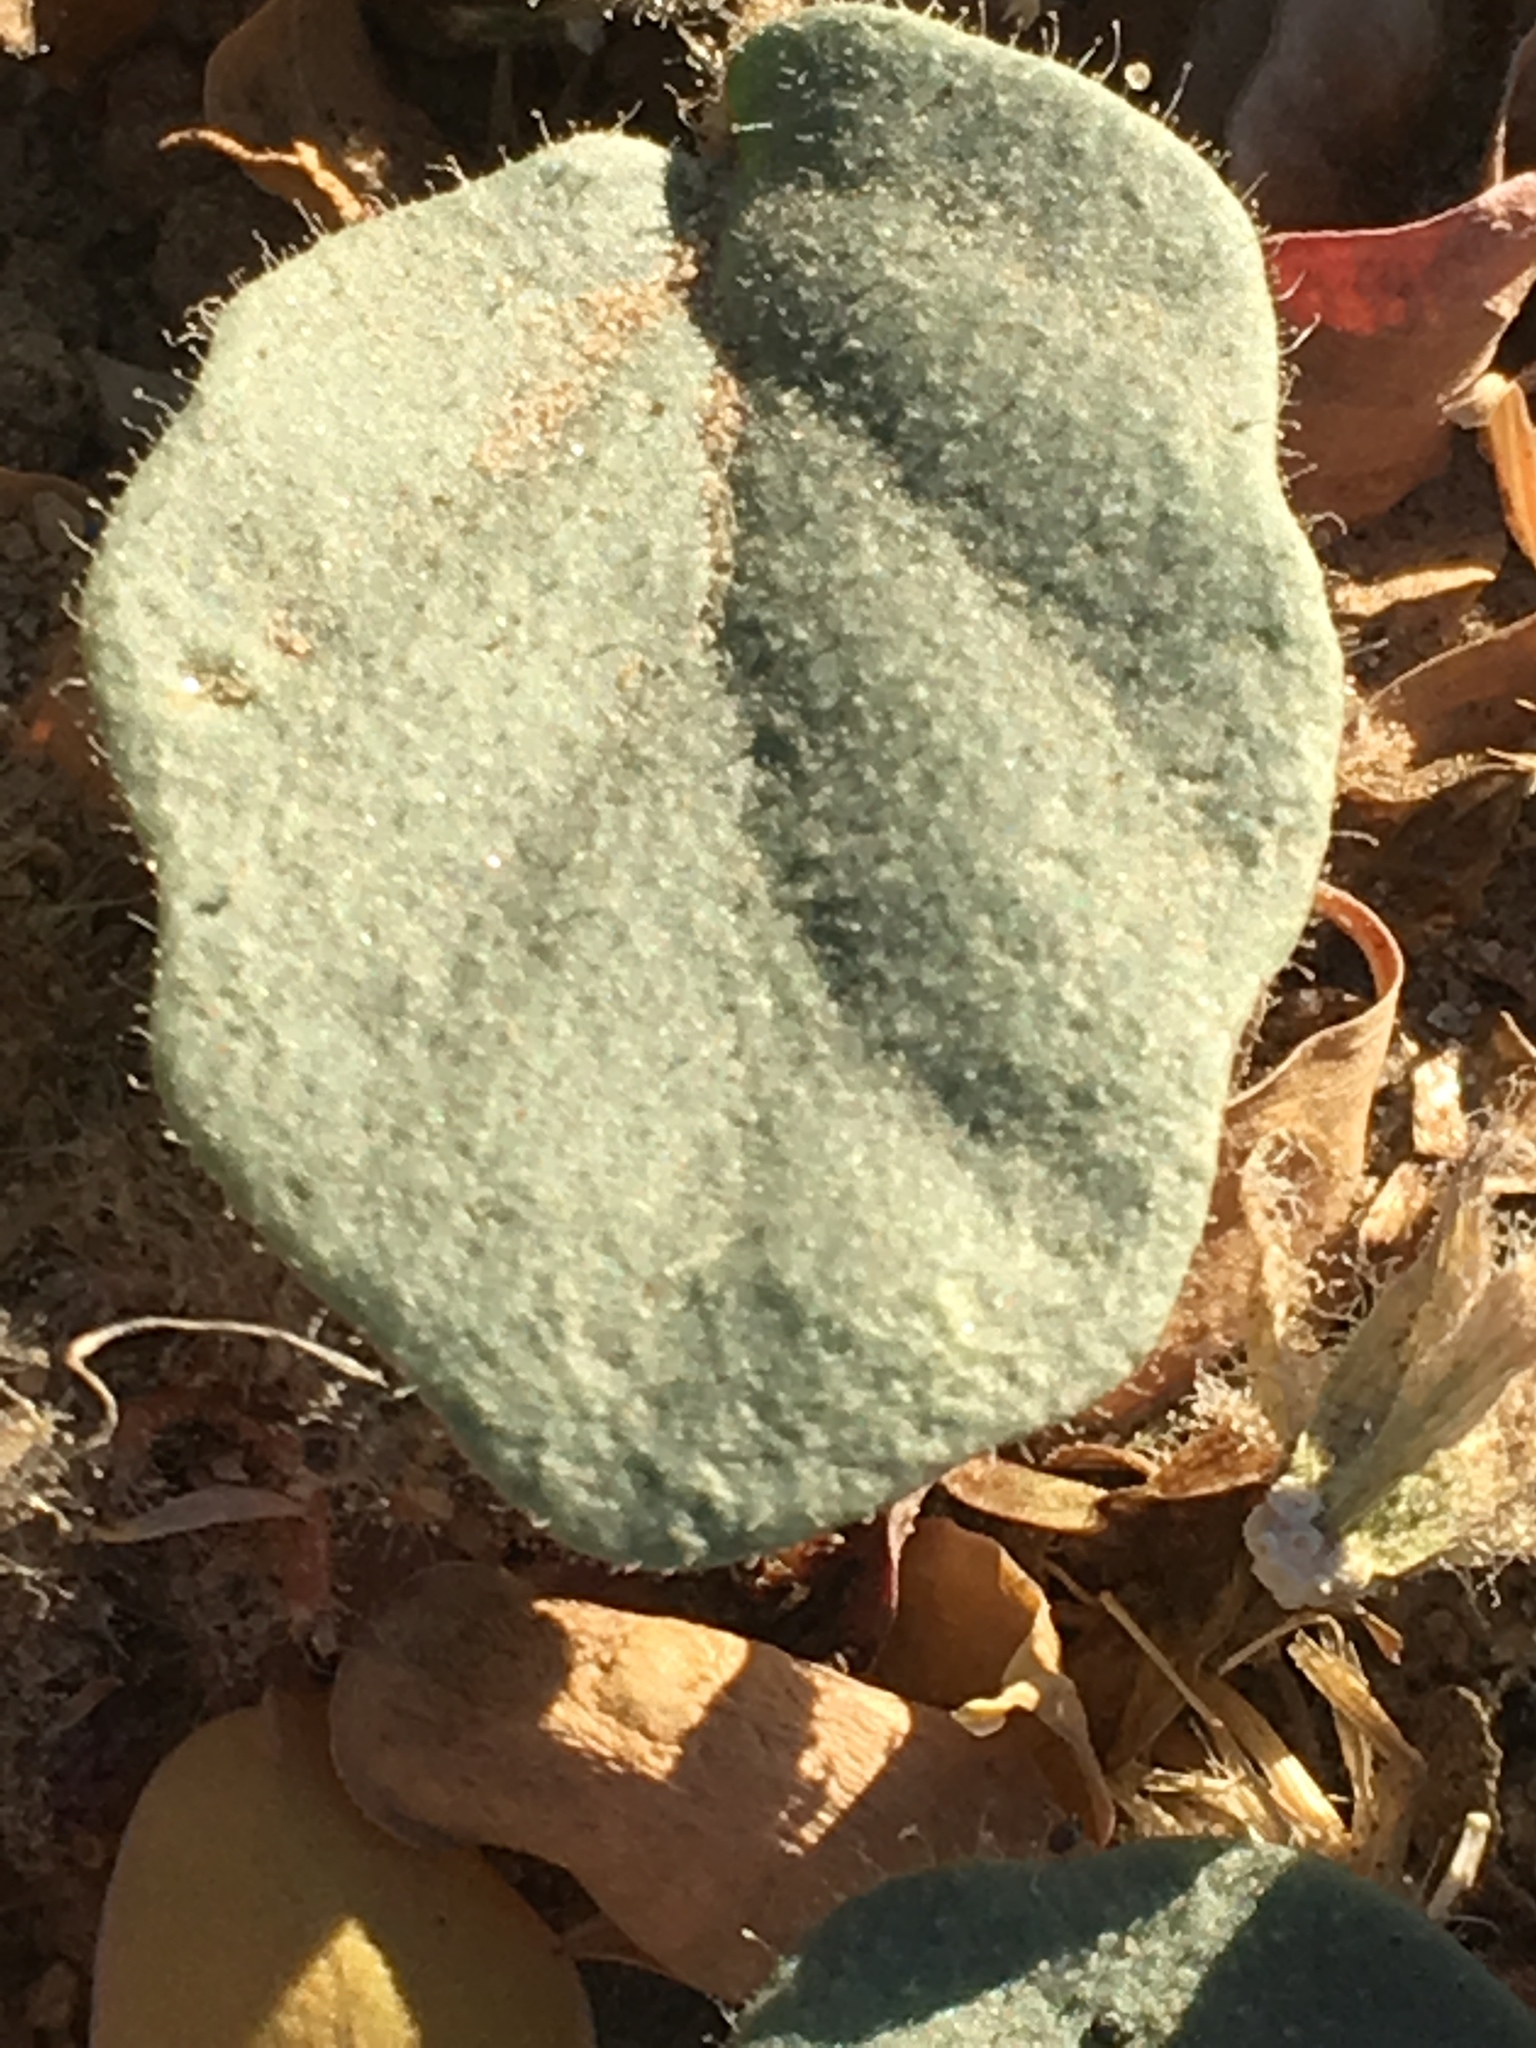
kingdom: Plantae
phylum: Tracheophyta
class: Magnoliopsida
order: Caryophyllales
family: Nyctaginaceae
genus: Abronia
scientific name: Abronia villosa
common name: Desert sand-verbena
